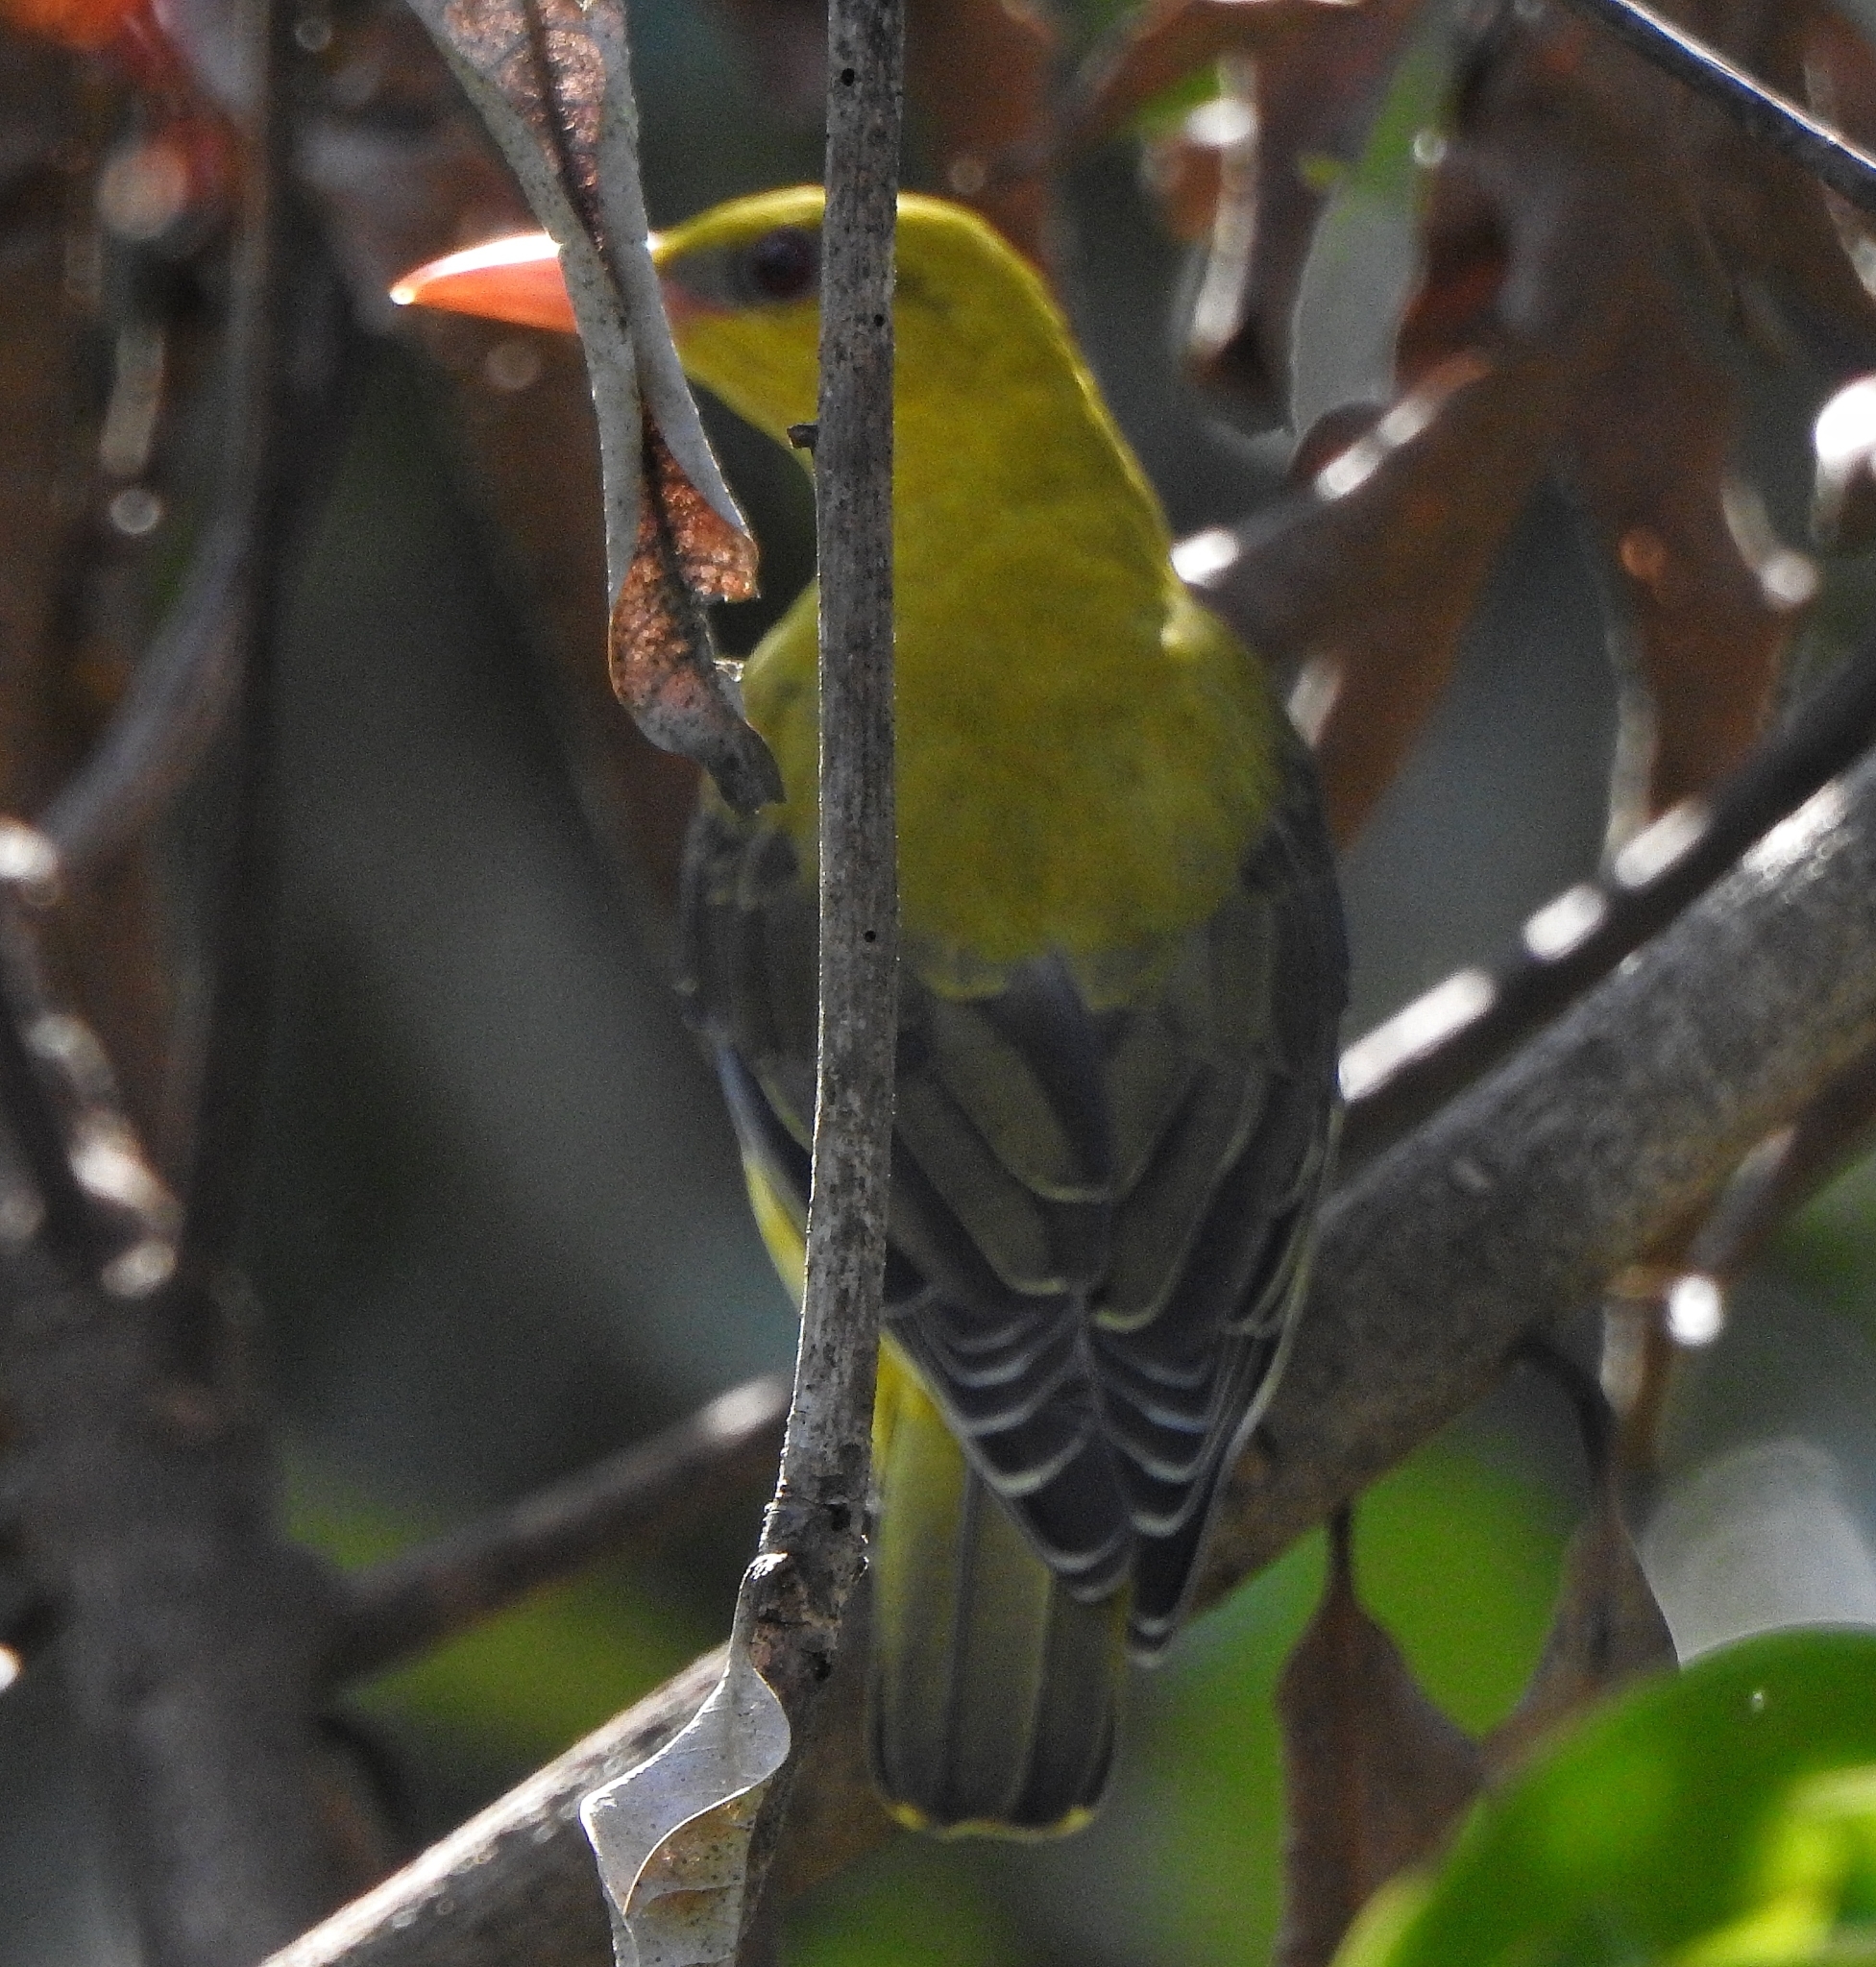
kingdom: Animalia
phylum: Chordata
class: Aves
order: Passeriformes
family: Oriolidae
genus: Oriolus
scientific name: Oriolus kundoo
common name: Indian golden oriole
